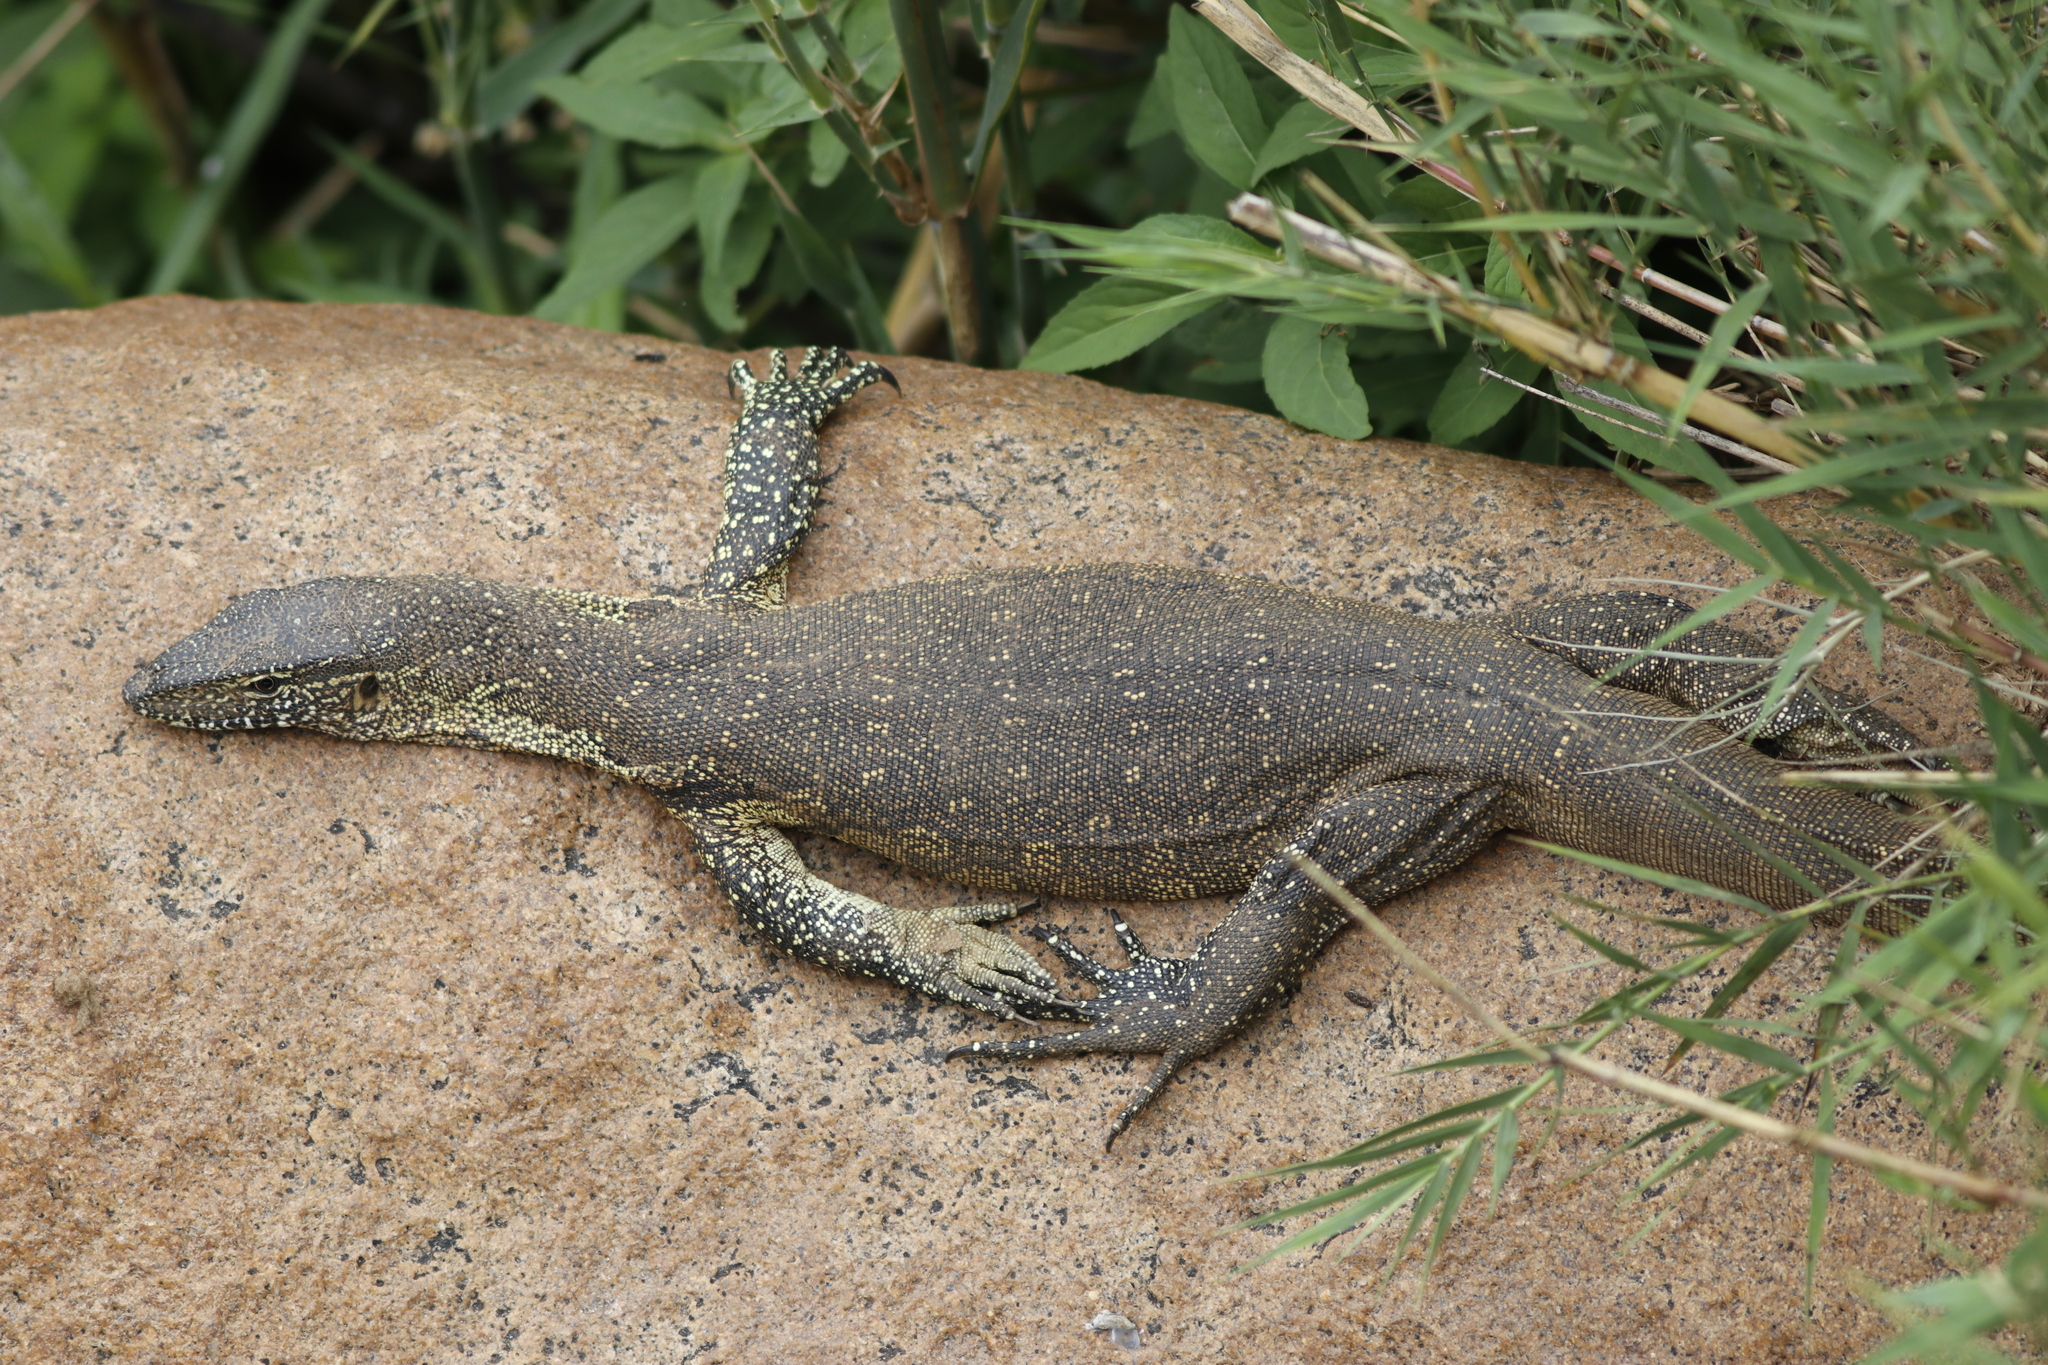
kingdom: Animalia
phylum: Chordata
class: Squamata
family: Varanidae
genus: Varanus
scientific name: Varanus niloticus
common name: Nile monitor
